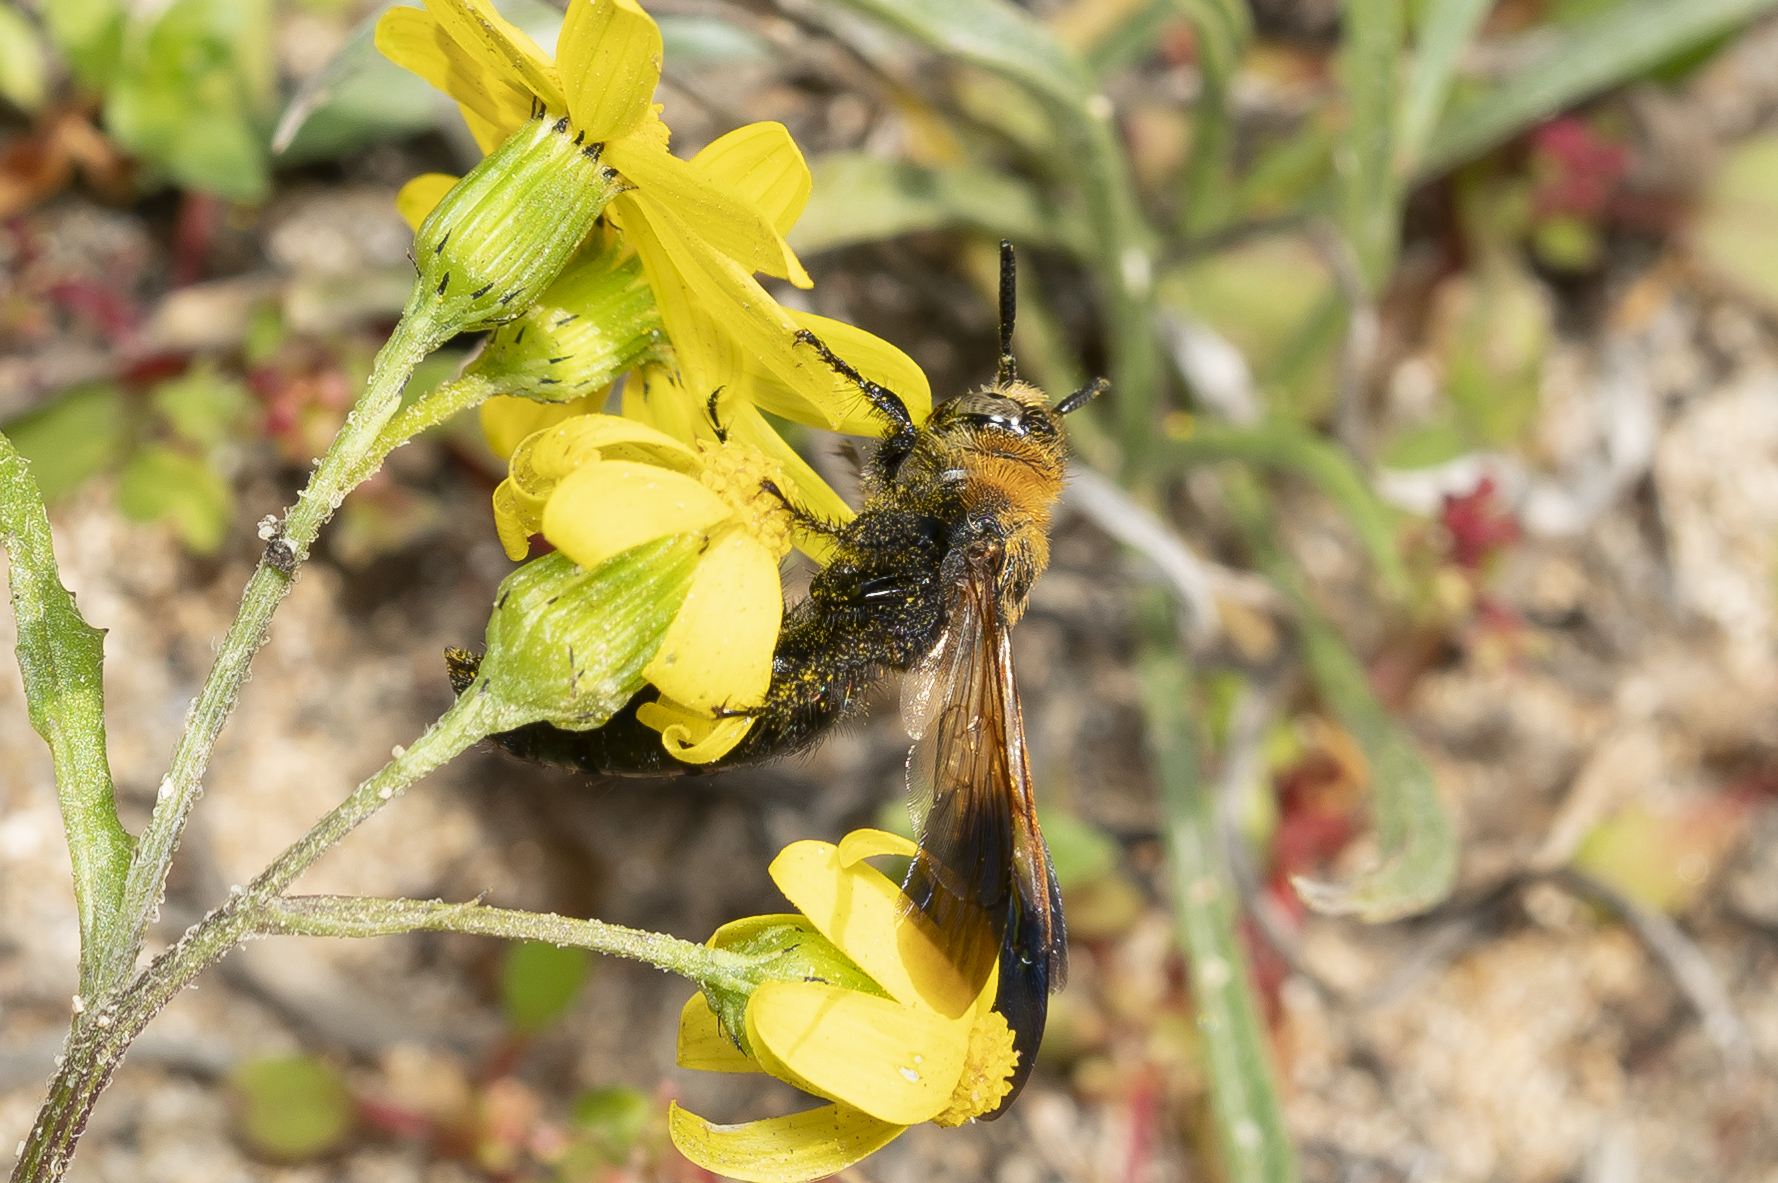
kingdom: Animalia
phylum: Arthropoda
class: Insecta
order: Hymenoptera
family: Scoliidae
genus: Campsomeriella
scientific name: Campsomeriella thoracica
